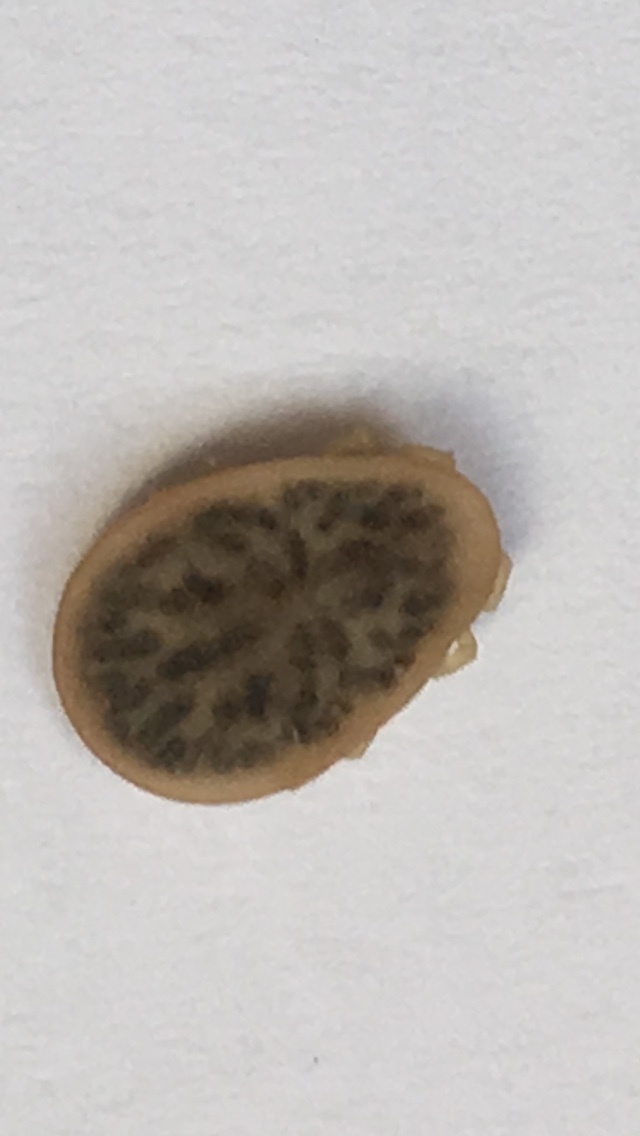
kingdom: Animalia
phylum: Arthropoda
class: Arachnida
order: Ixodida
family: Argasidae
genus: Argas
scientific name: Argas reflexus
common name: Pigeon tick
